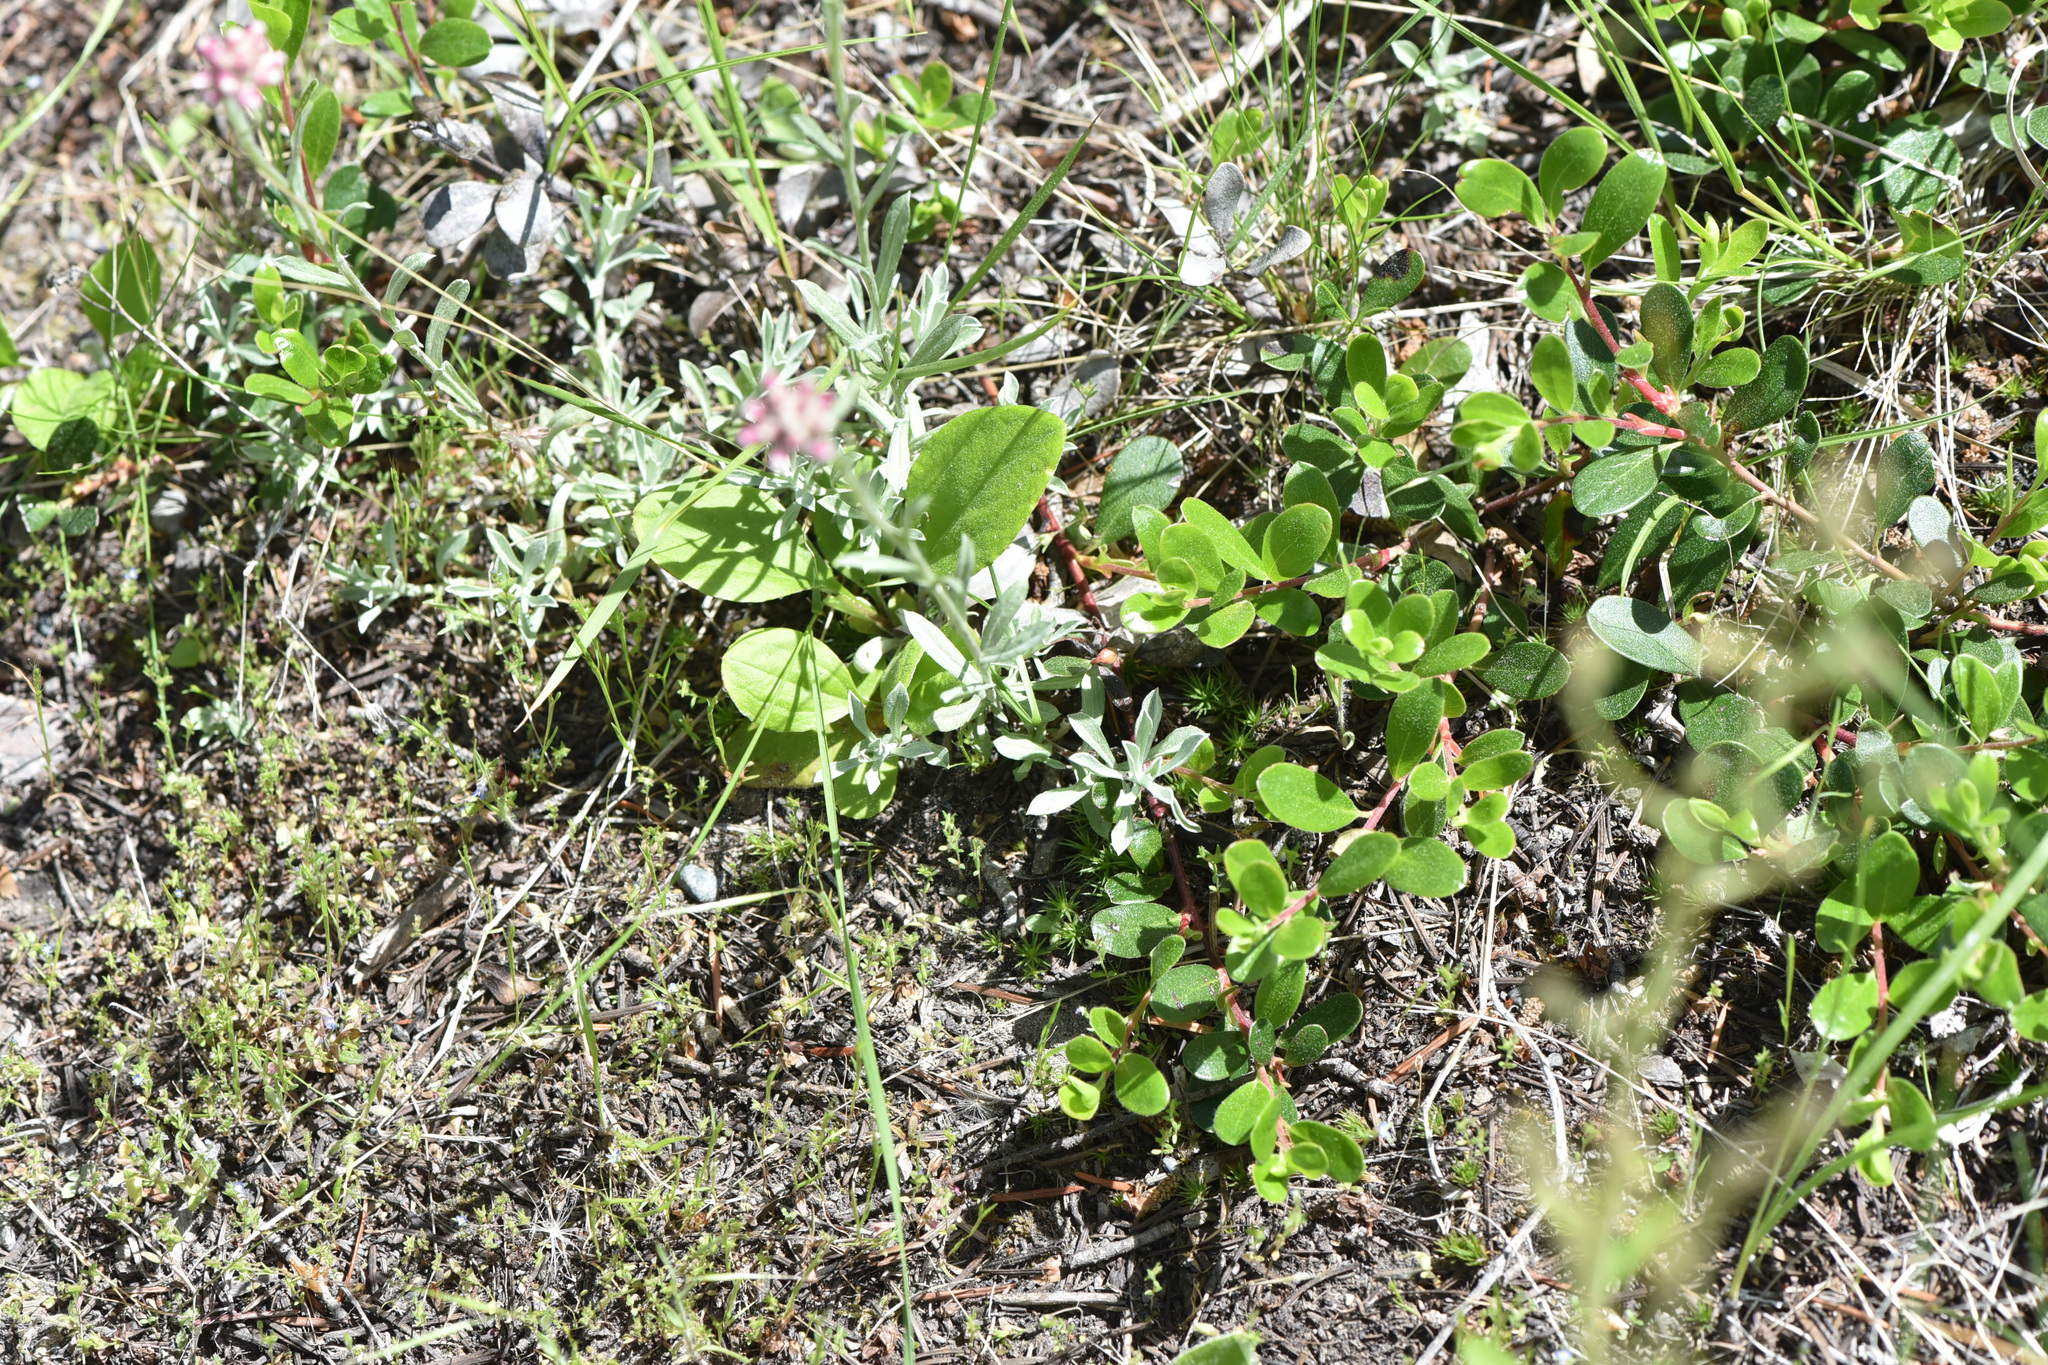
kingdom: Plantae
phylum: Tracheophyta
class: Magnoliopsida
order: Asterales
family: Asteraceae
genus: Antennaria
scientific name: Antennaria rosea
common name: Rosy pussytoes
